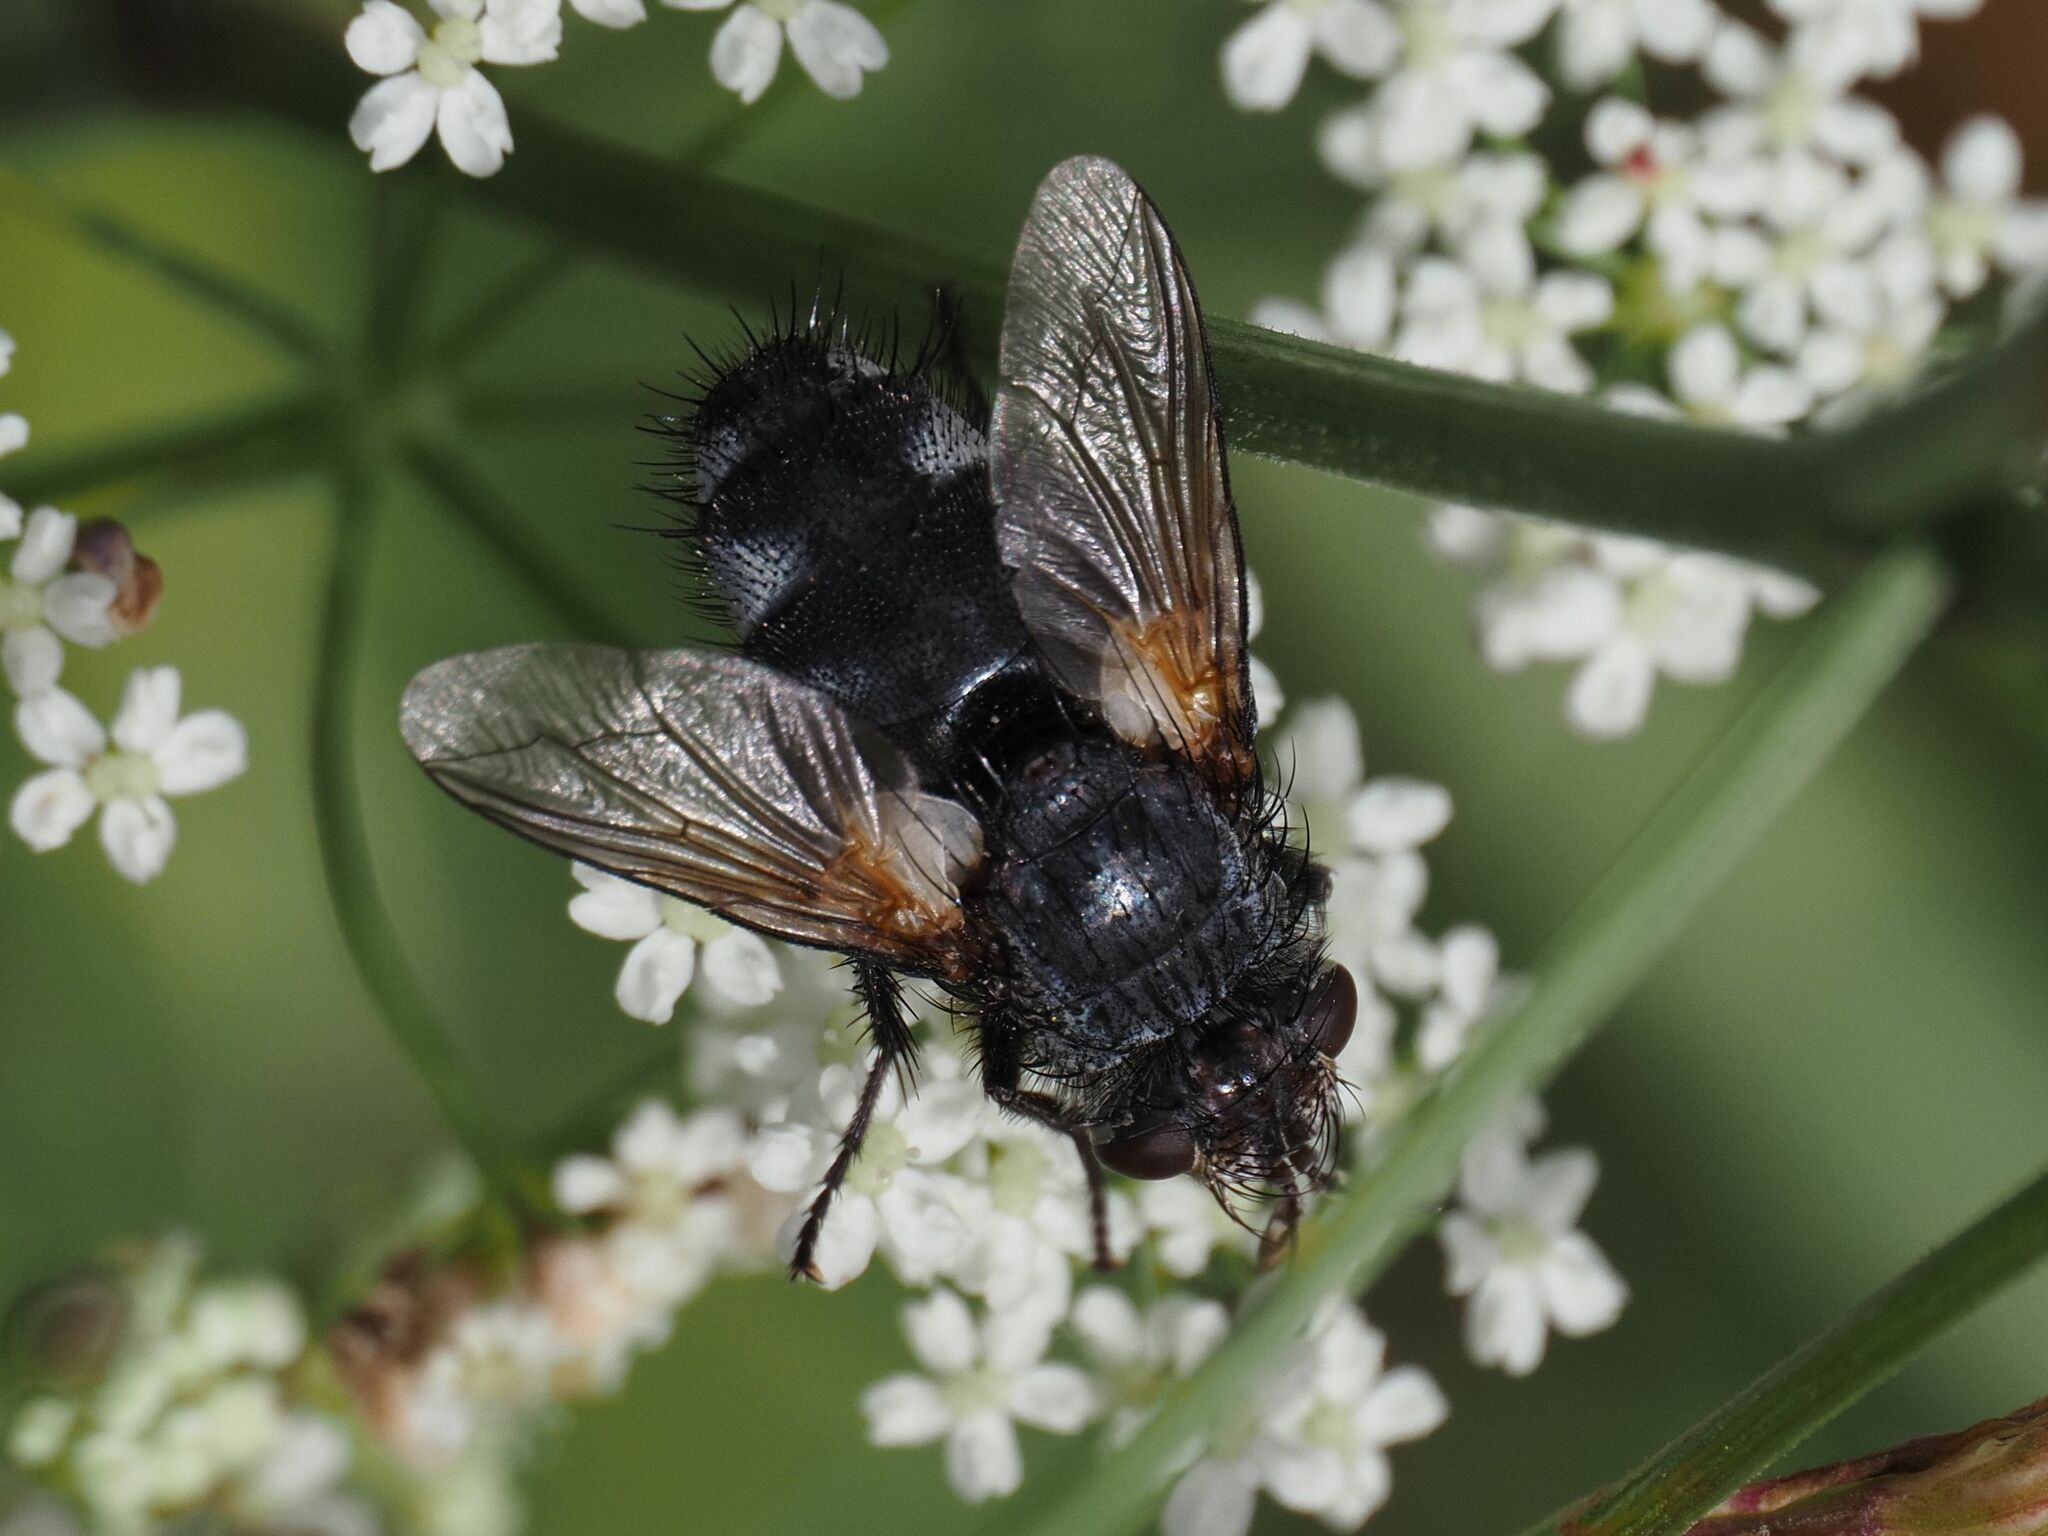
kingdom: Animalia
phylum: Arthropoda
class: Insecta
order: Diptera
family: Tachinidae
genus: Germaria
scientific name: Germaria ruficeps
